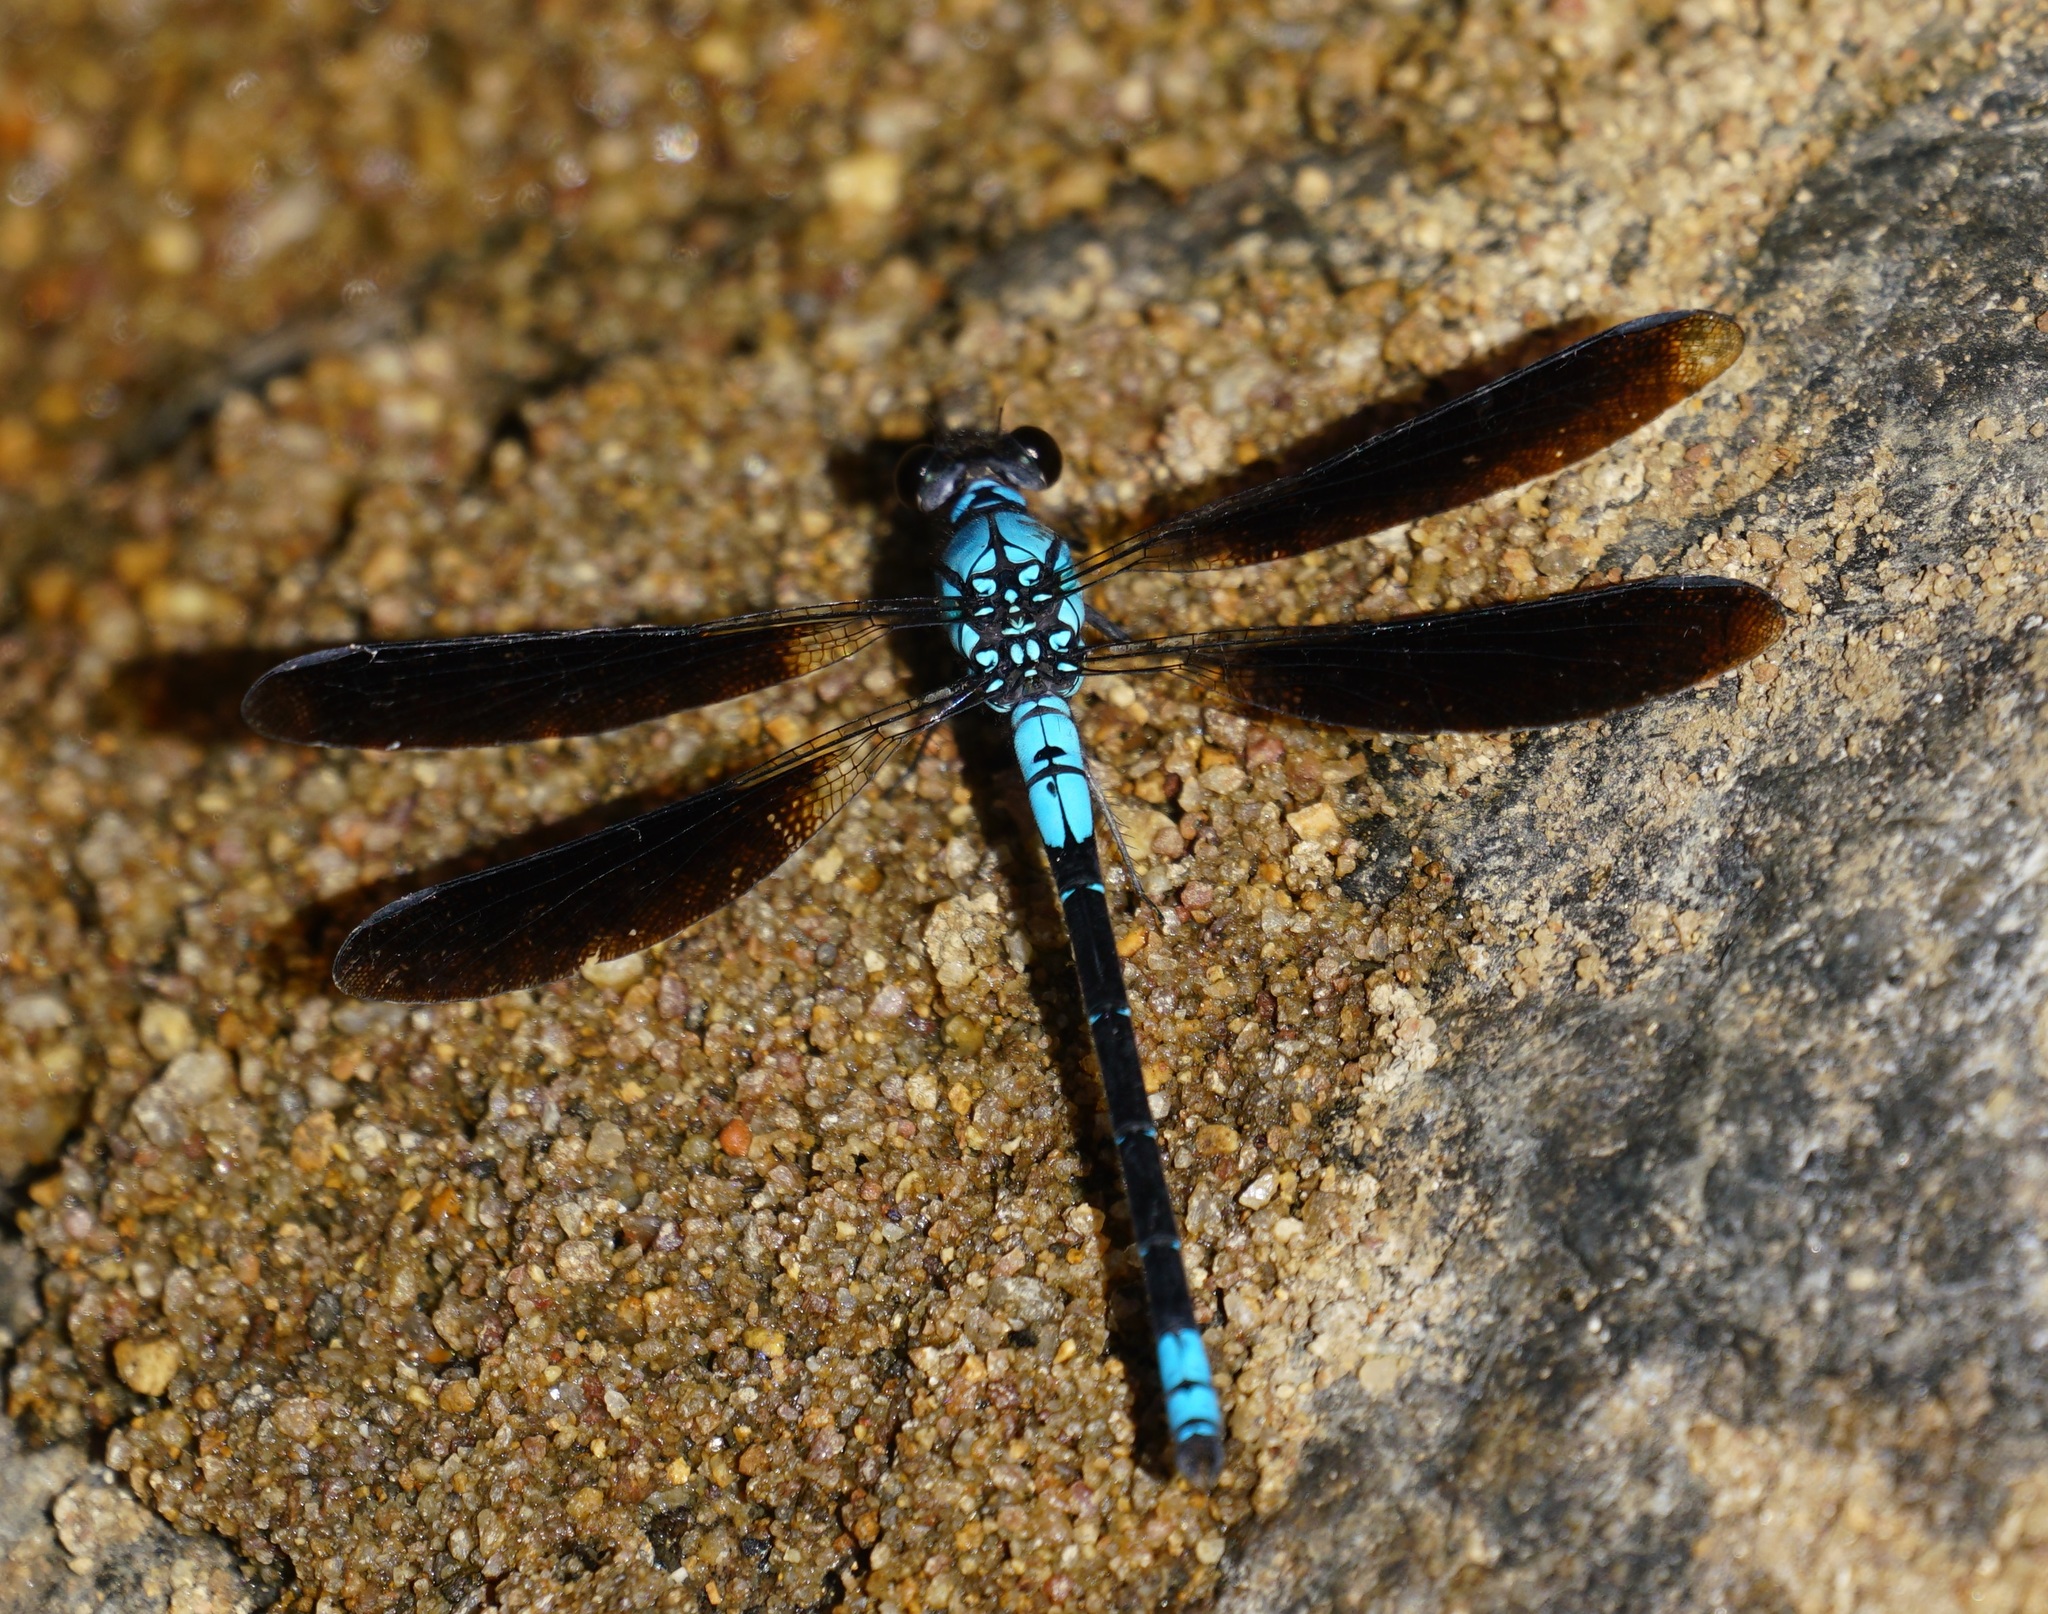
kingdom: Animalia
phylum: Arthropoda
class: Insecta
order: Odonata
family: Lestoideidae
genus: Diphlebia
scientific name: Diphlebia euphoeoides
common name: Tropical rockmaster
